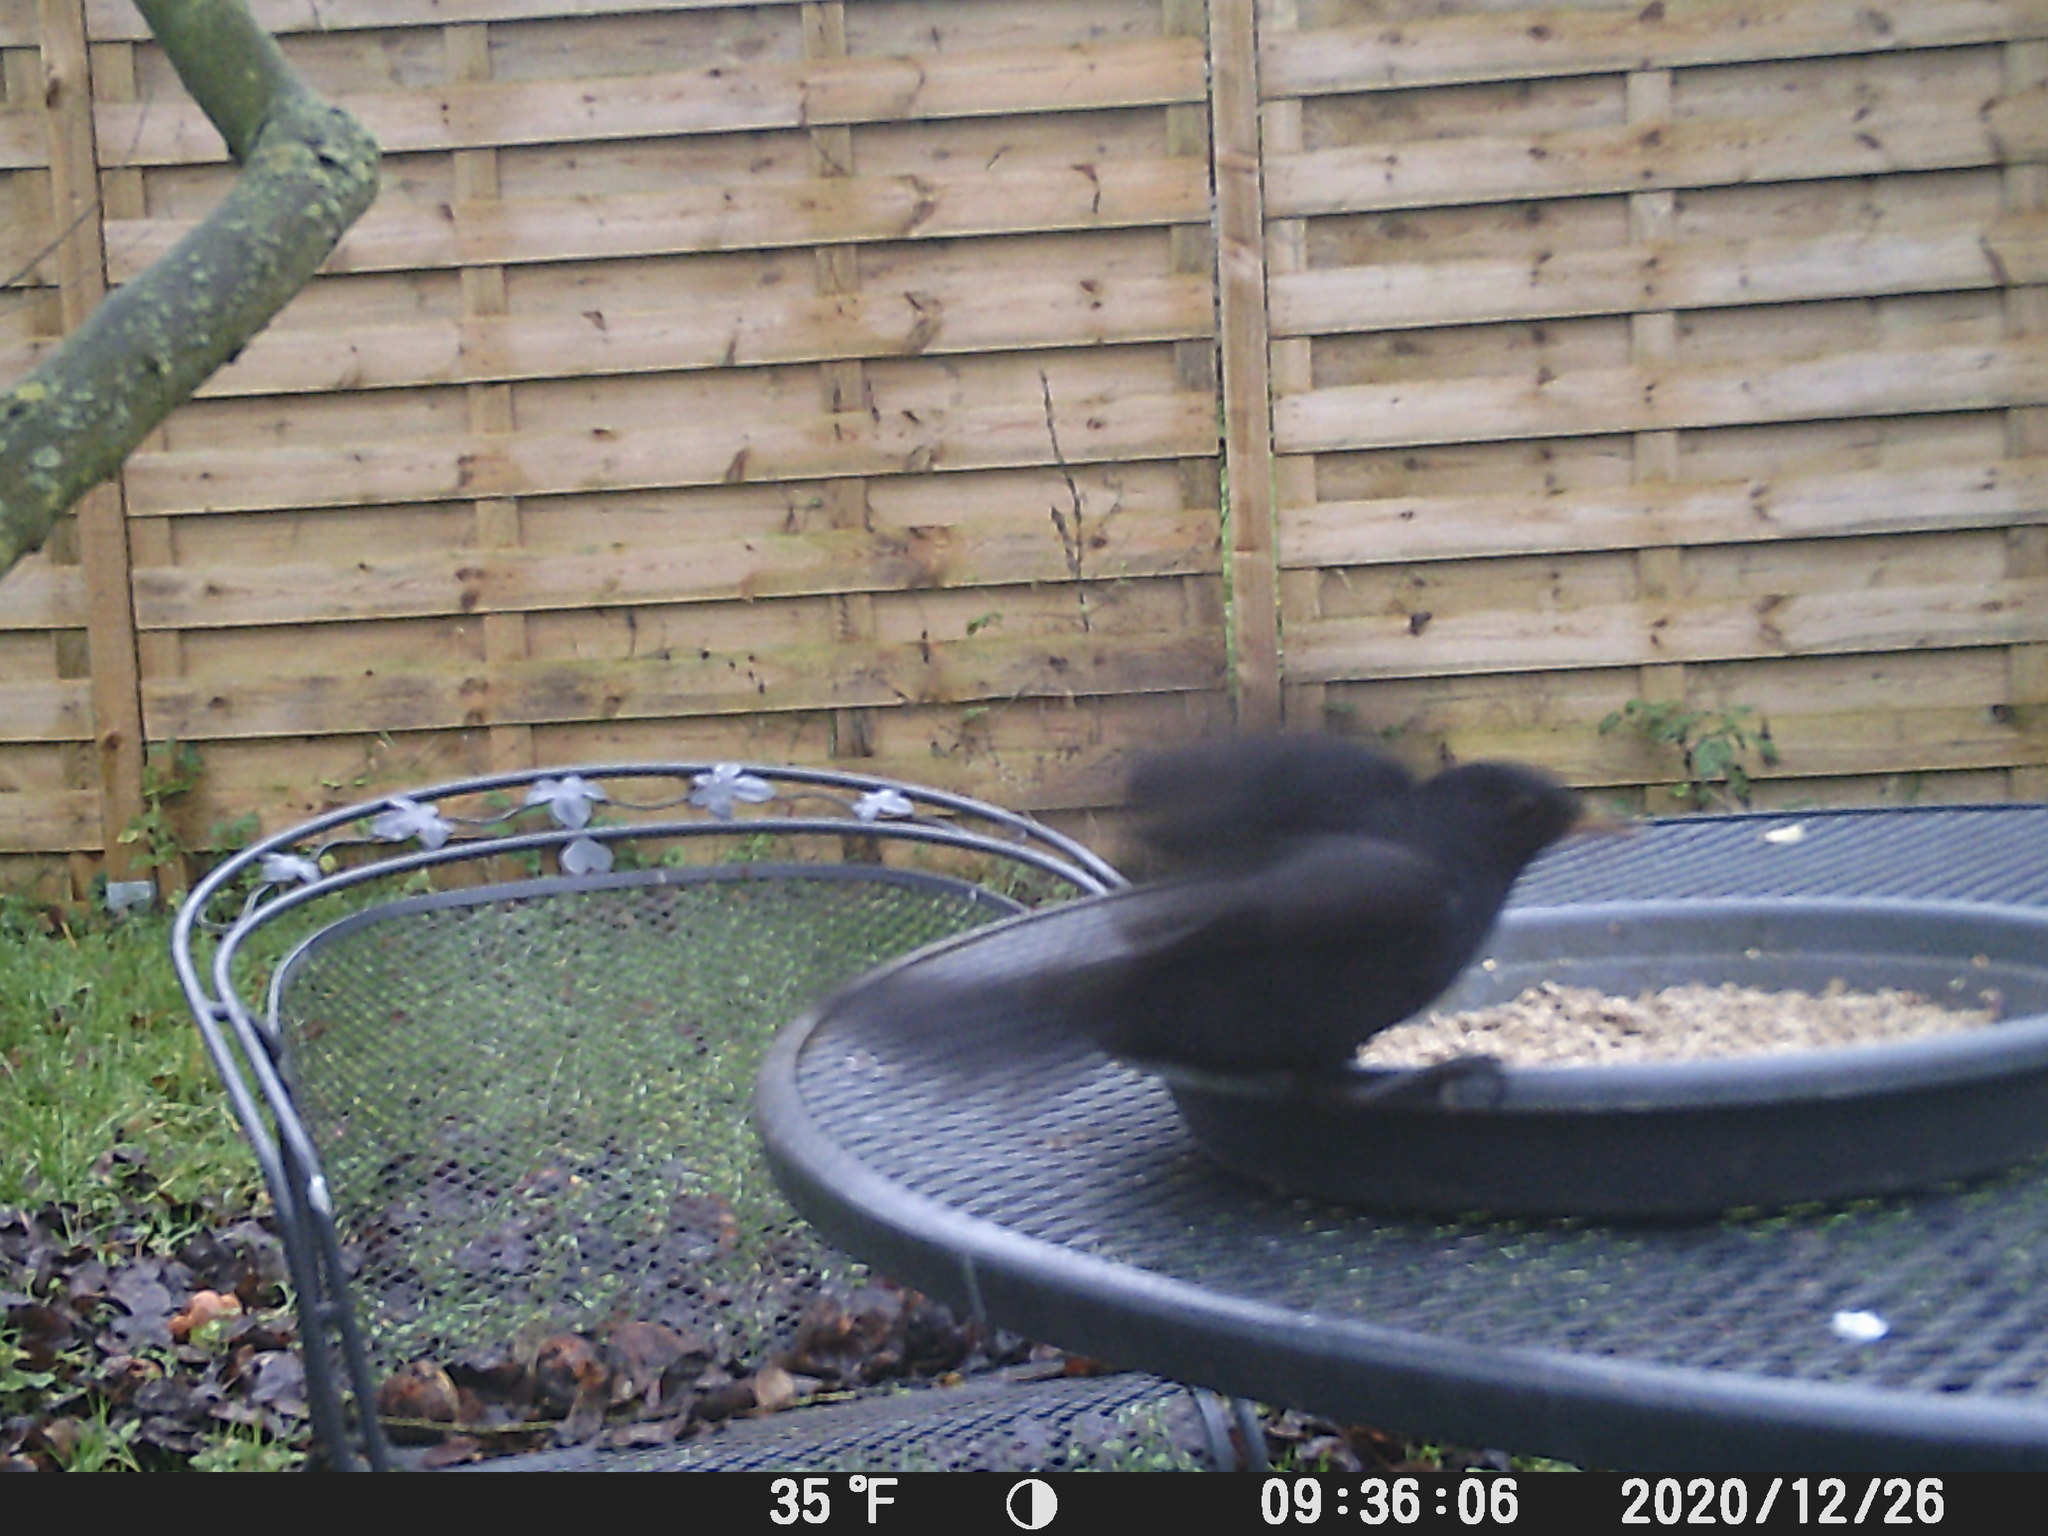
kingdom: Animalia
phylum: Chordata
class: Aves
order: Passeriformes
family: Turdidae
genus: Turdus
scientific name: Turdus merula
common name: Common blackbird
